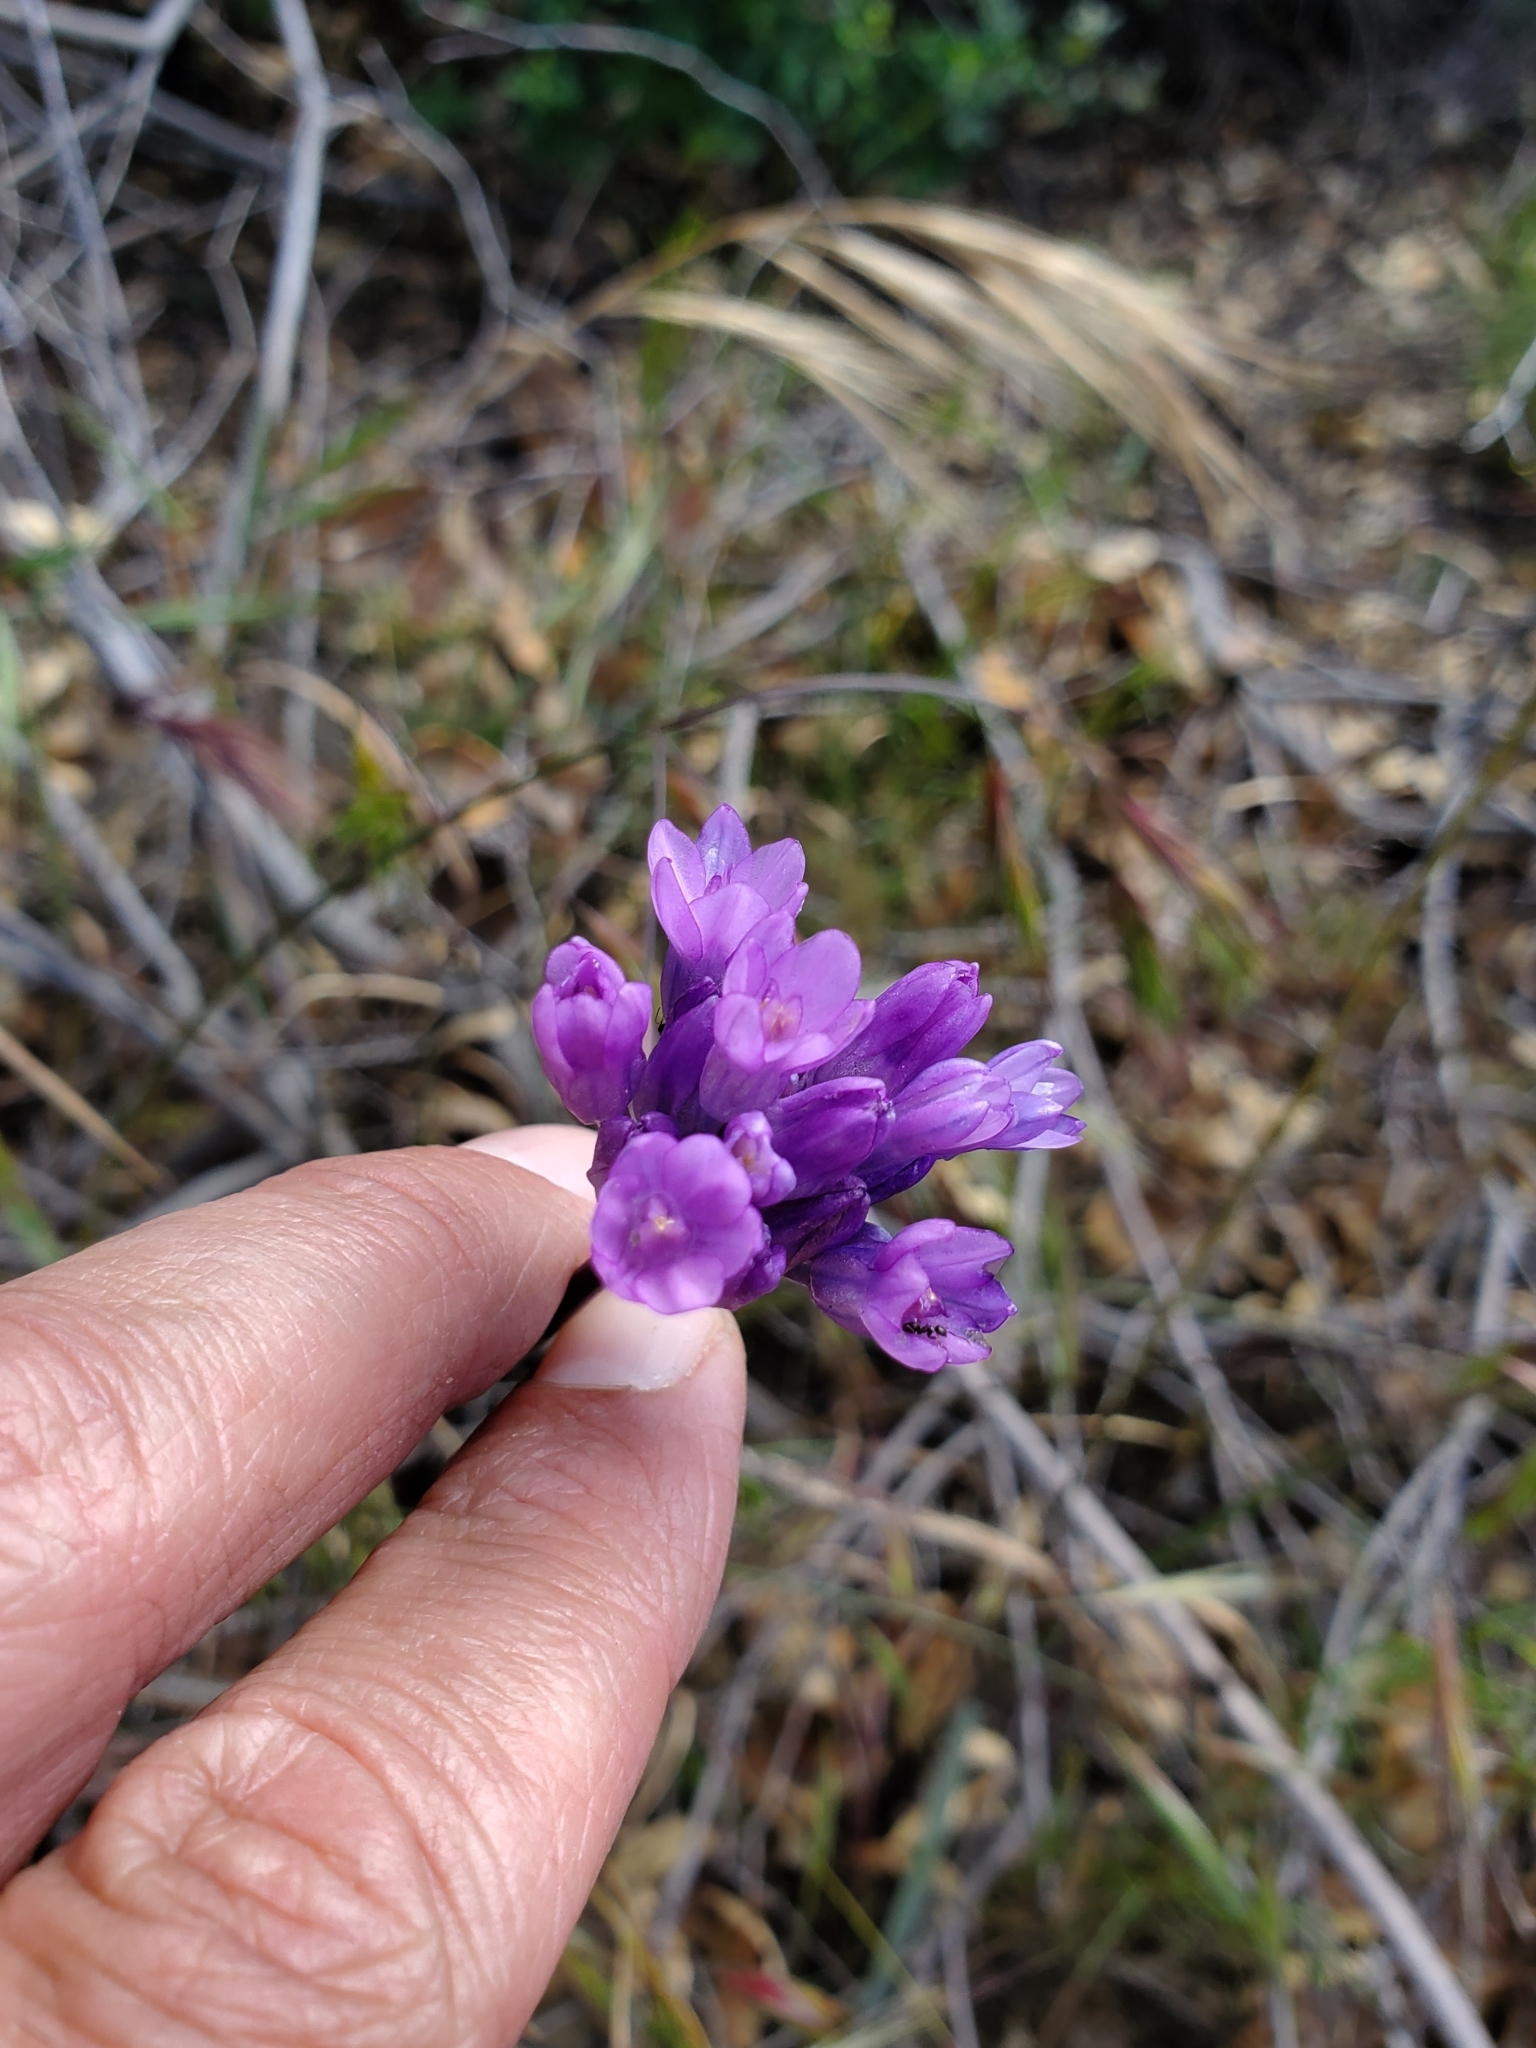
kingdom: Plantae
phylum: Tracheophyta
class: Liliopsida
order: Asparagales
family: Asparagaceae
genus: Dipterostemon
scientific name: Dipterostemon capitatus
